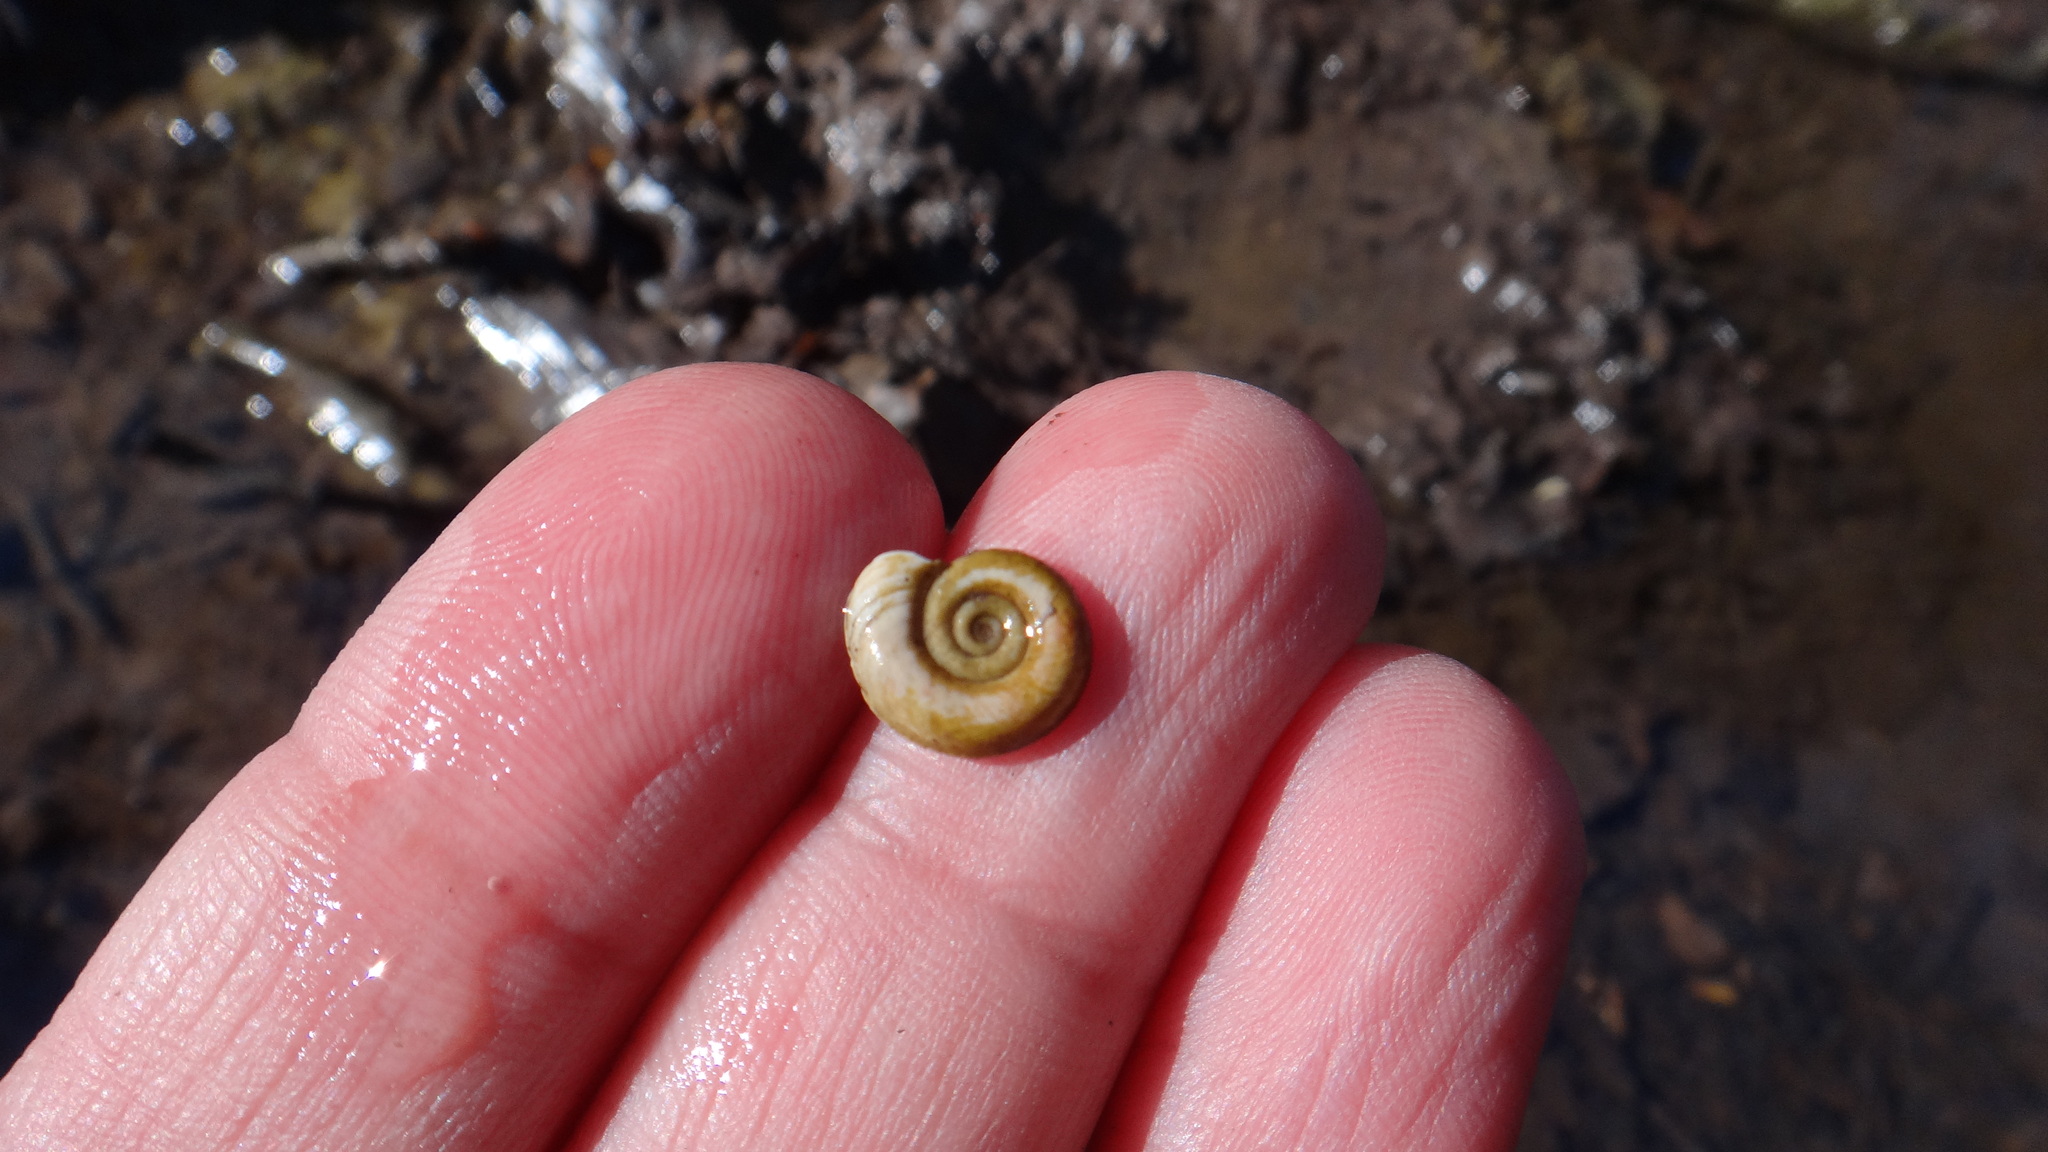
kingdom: Animalia
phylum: Mollusca
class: Gastropoda
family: Planorbidae
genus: Planorbis
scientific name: Planorbis planorbis
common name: Margined ramshorn
